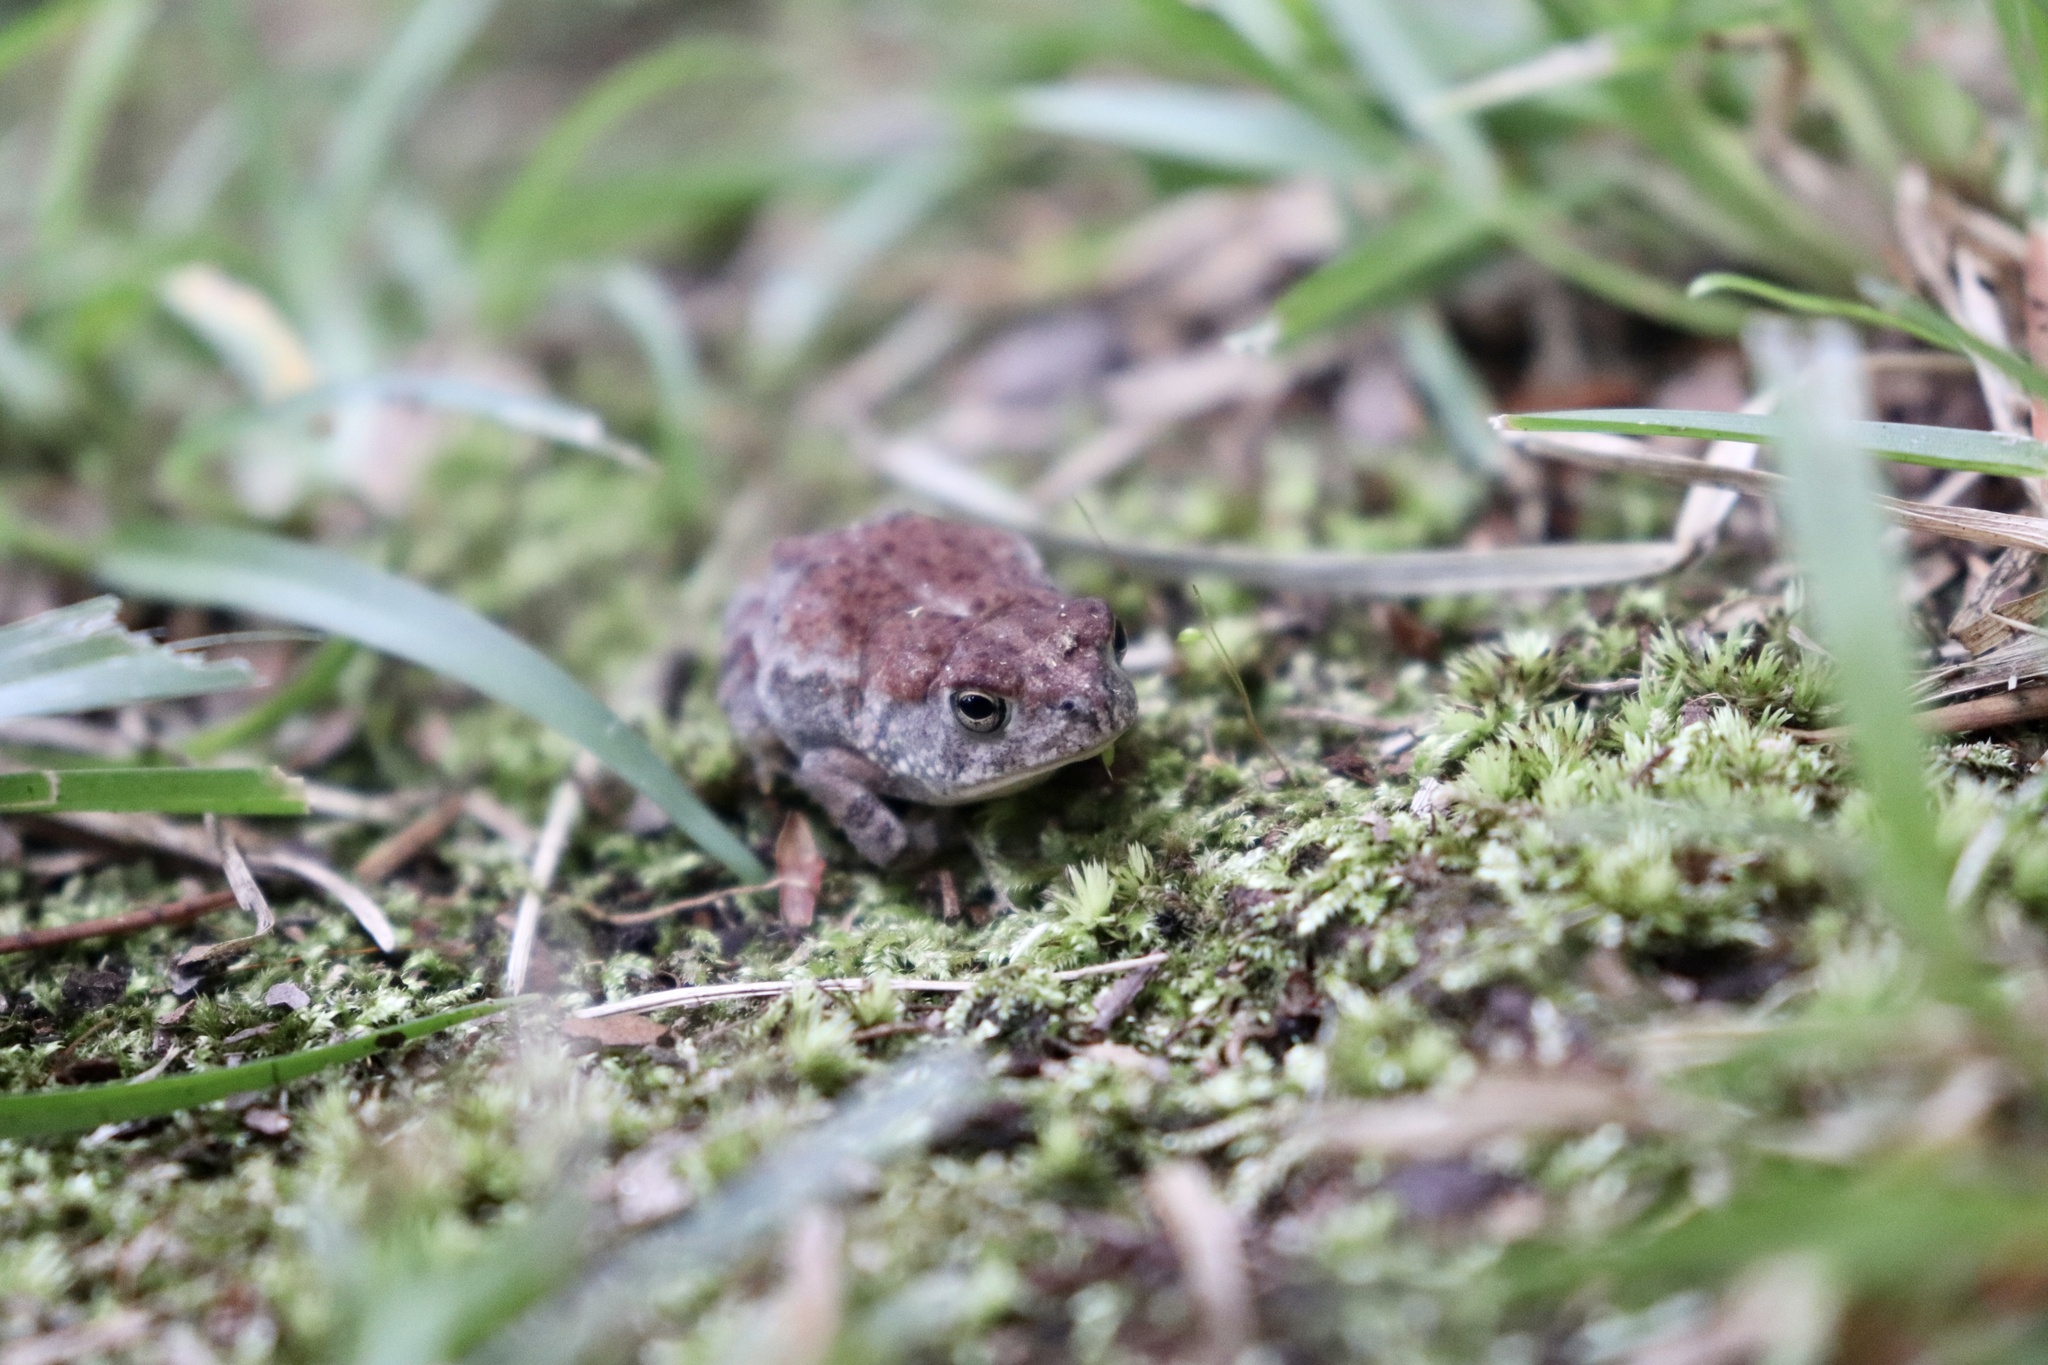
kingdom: Animalia
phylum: Chordata
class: Amphibia
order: Anura
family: Bufonidae
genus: Anaxyrus
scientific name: Anaxyrus terrestris
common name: Southern toad
